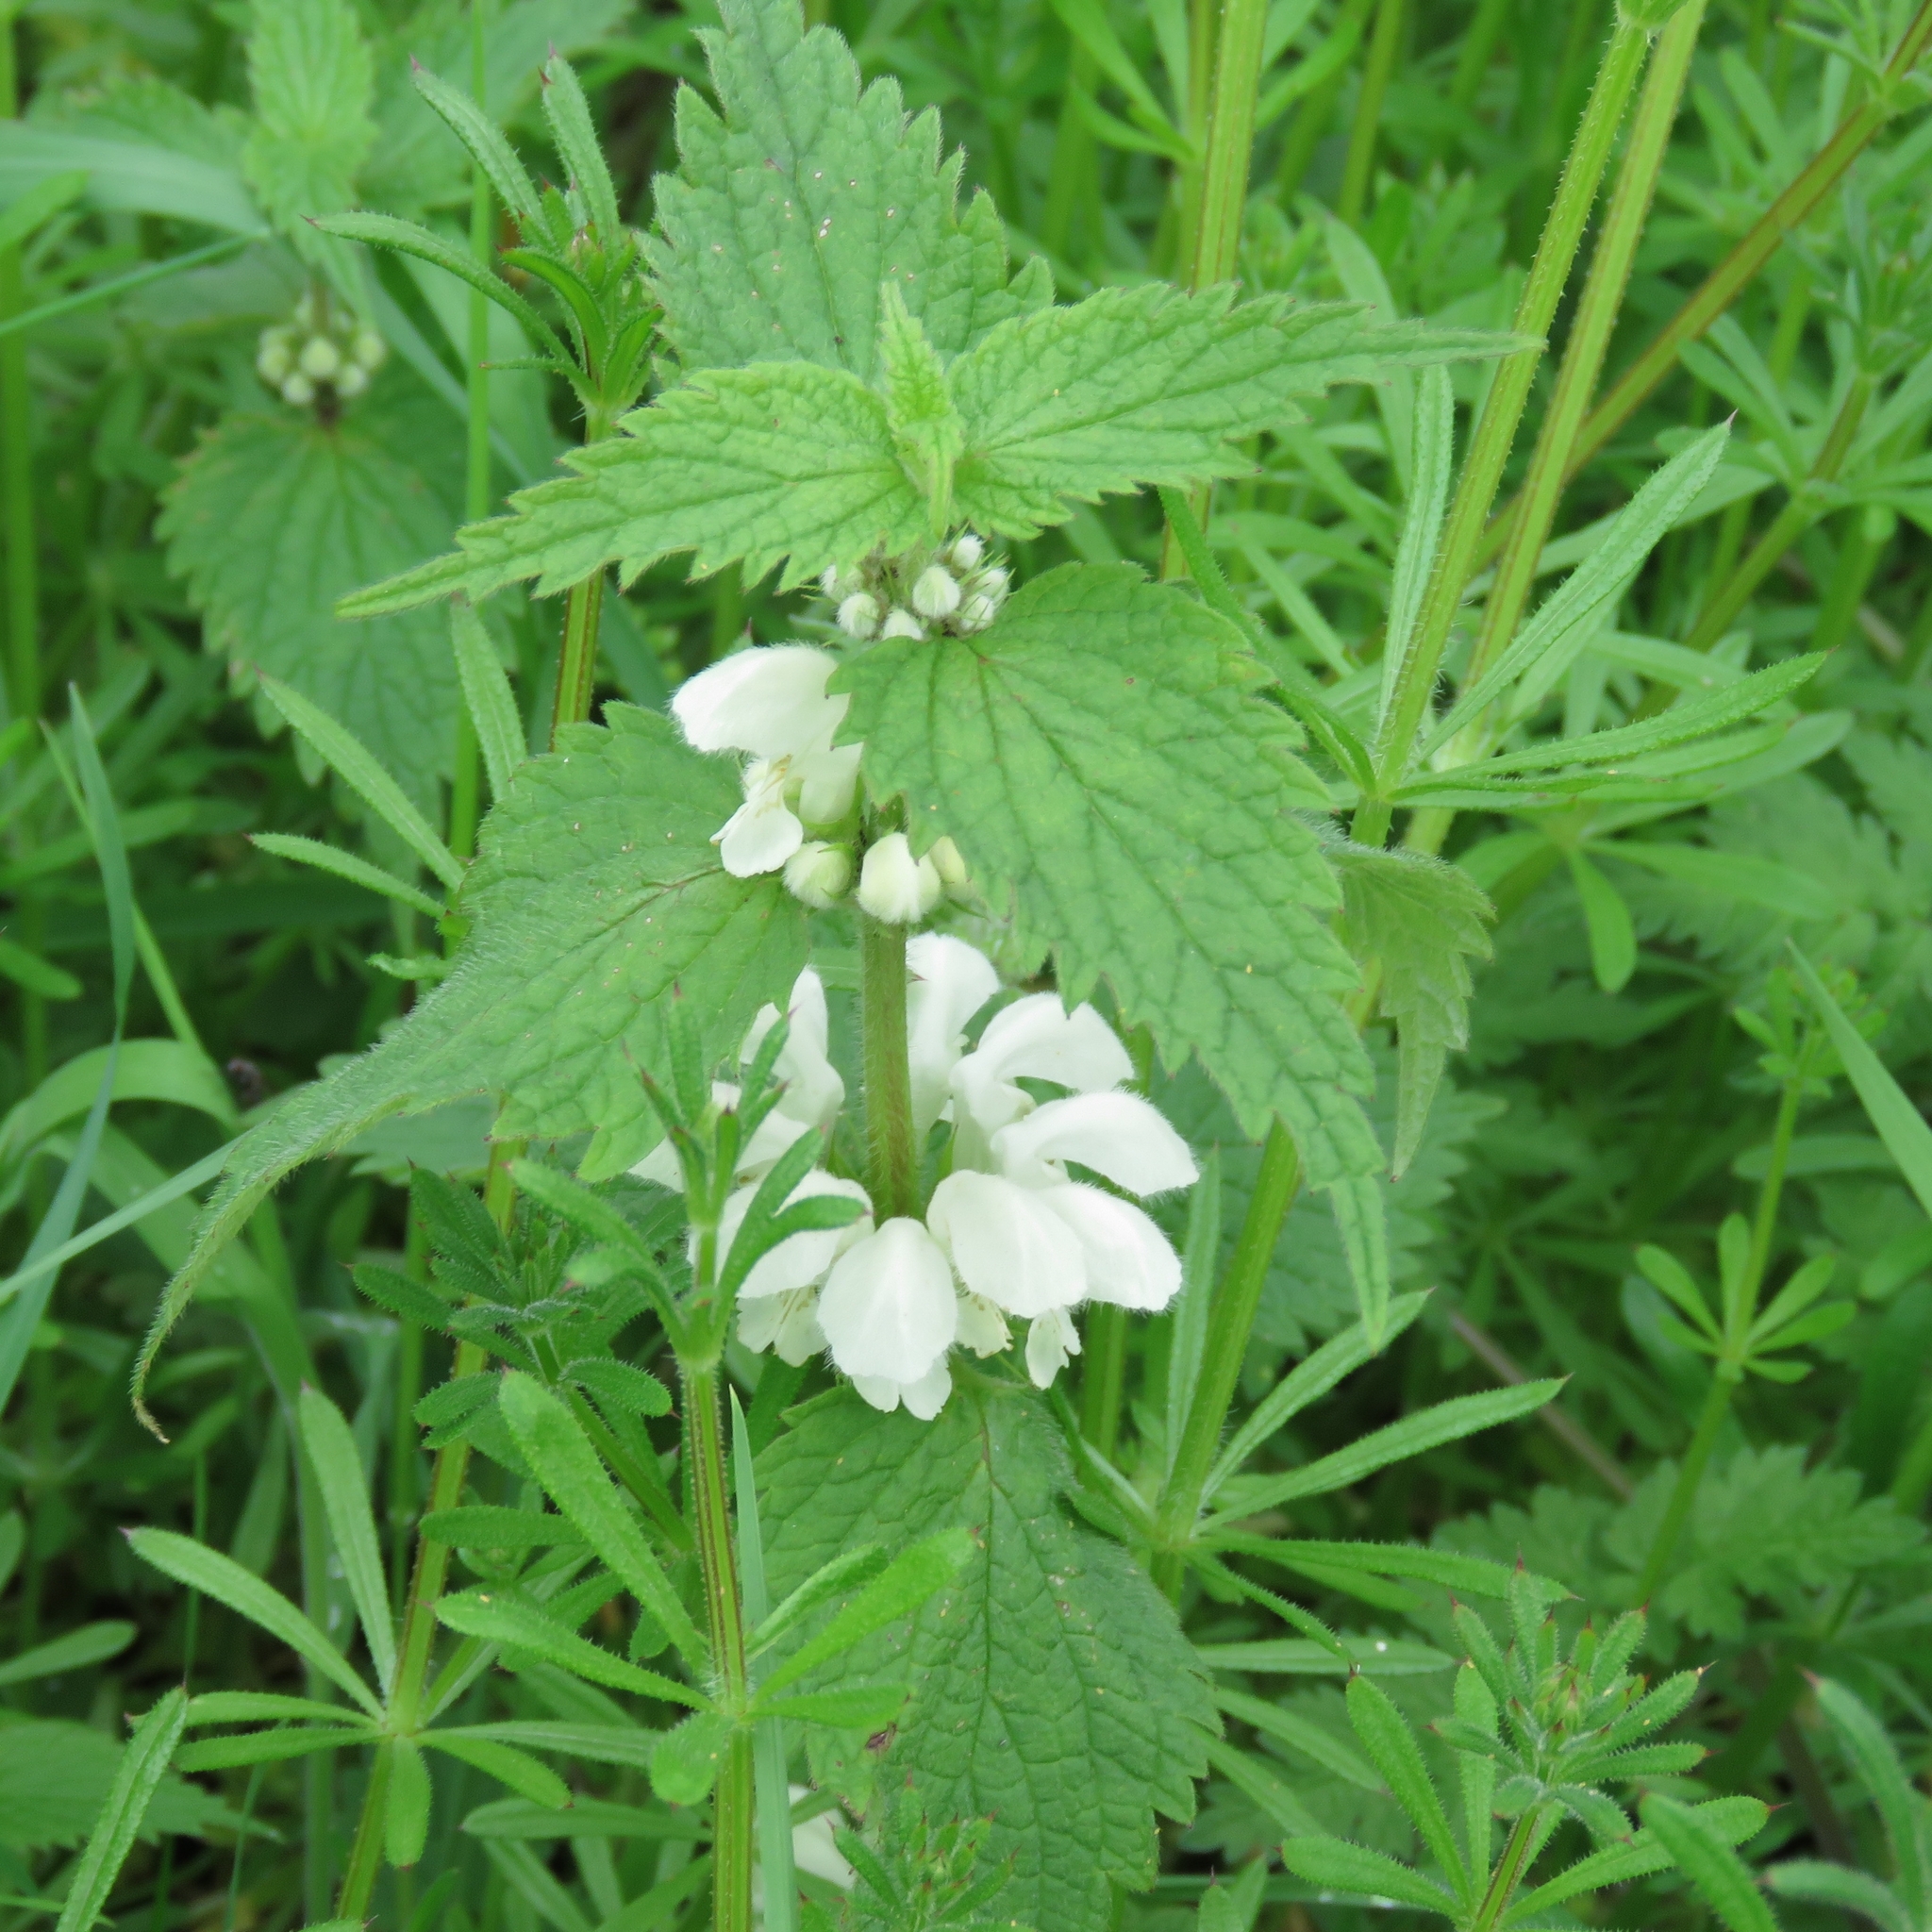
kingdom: Plantae
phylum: Tracheophyta
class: Magnoliopsida
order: Lamiales
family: Lamiaceae
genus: Lamium
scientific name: Lamium album
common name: White dead-nettle
